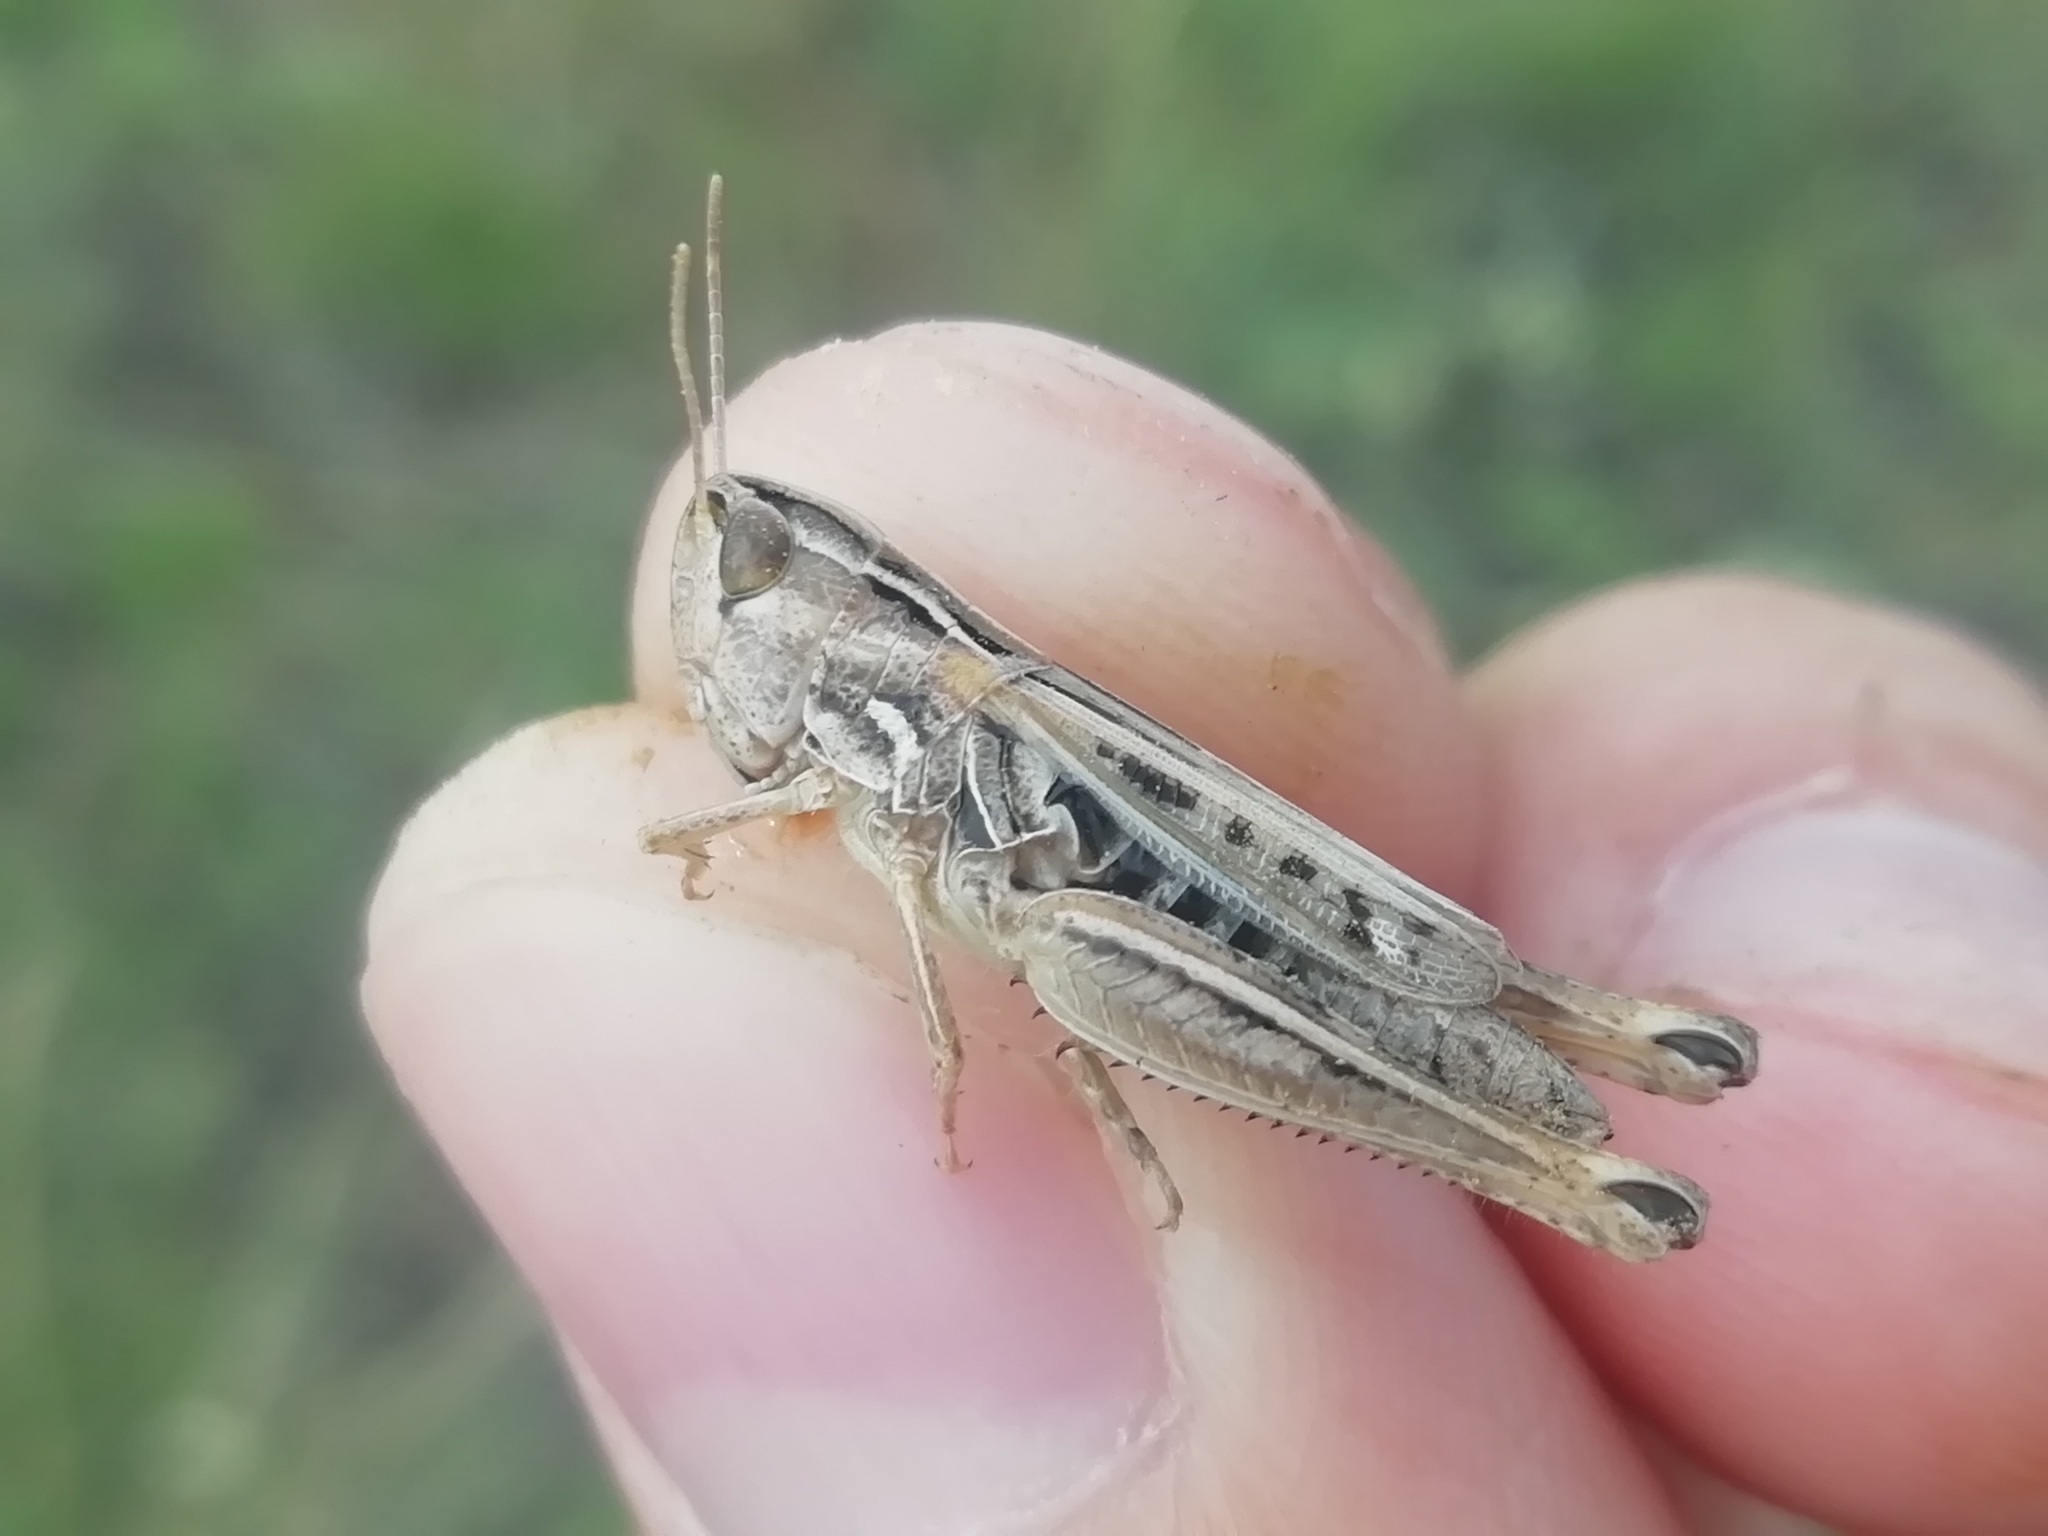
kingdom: Animalia
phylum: Arthropoda
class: Insecta
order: Orthoptera
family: Acrididae
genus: Stenobothrus
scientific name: Stenobothrus nigromaculatus
